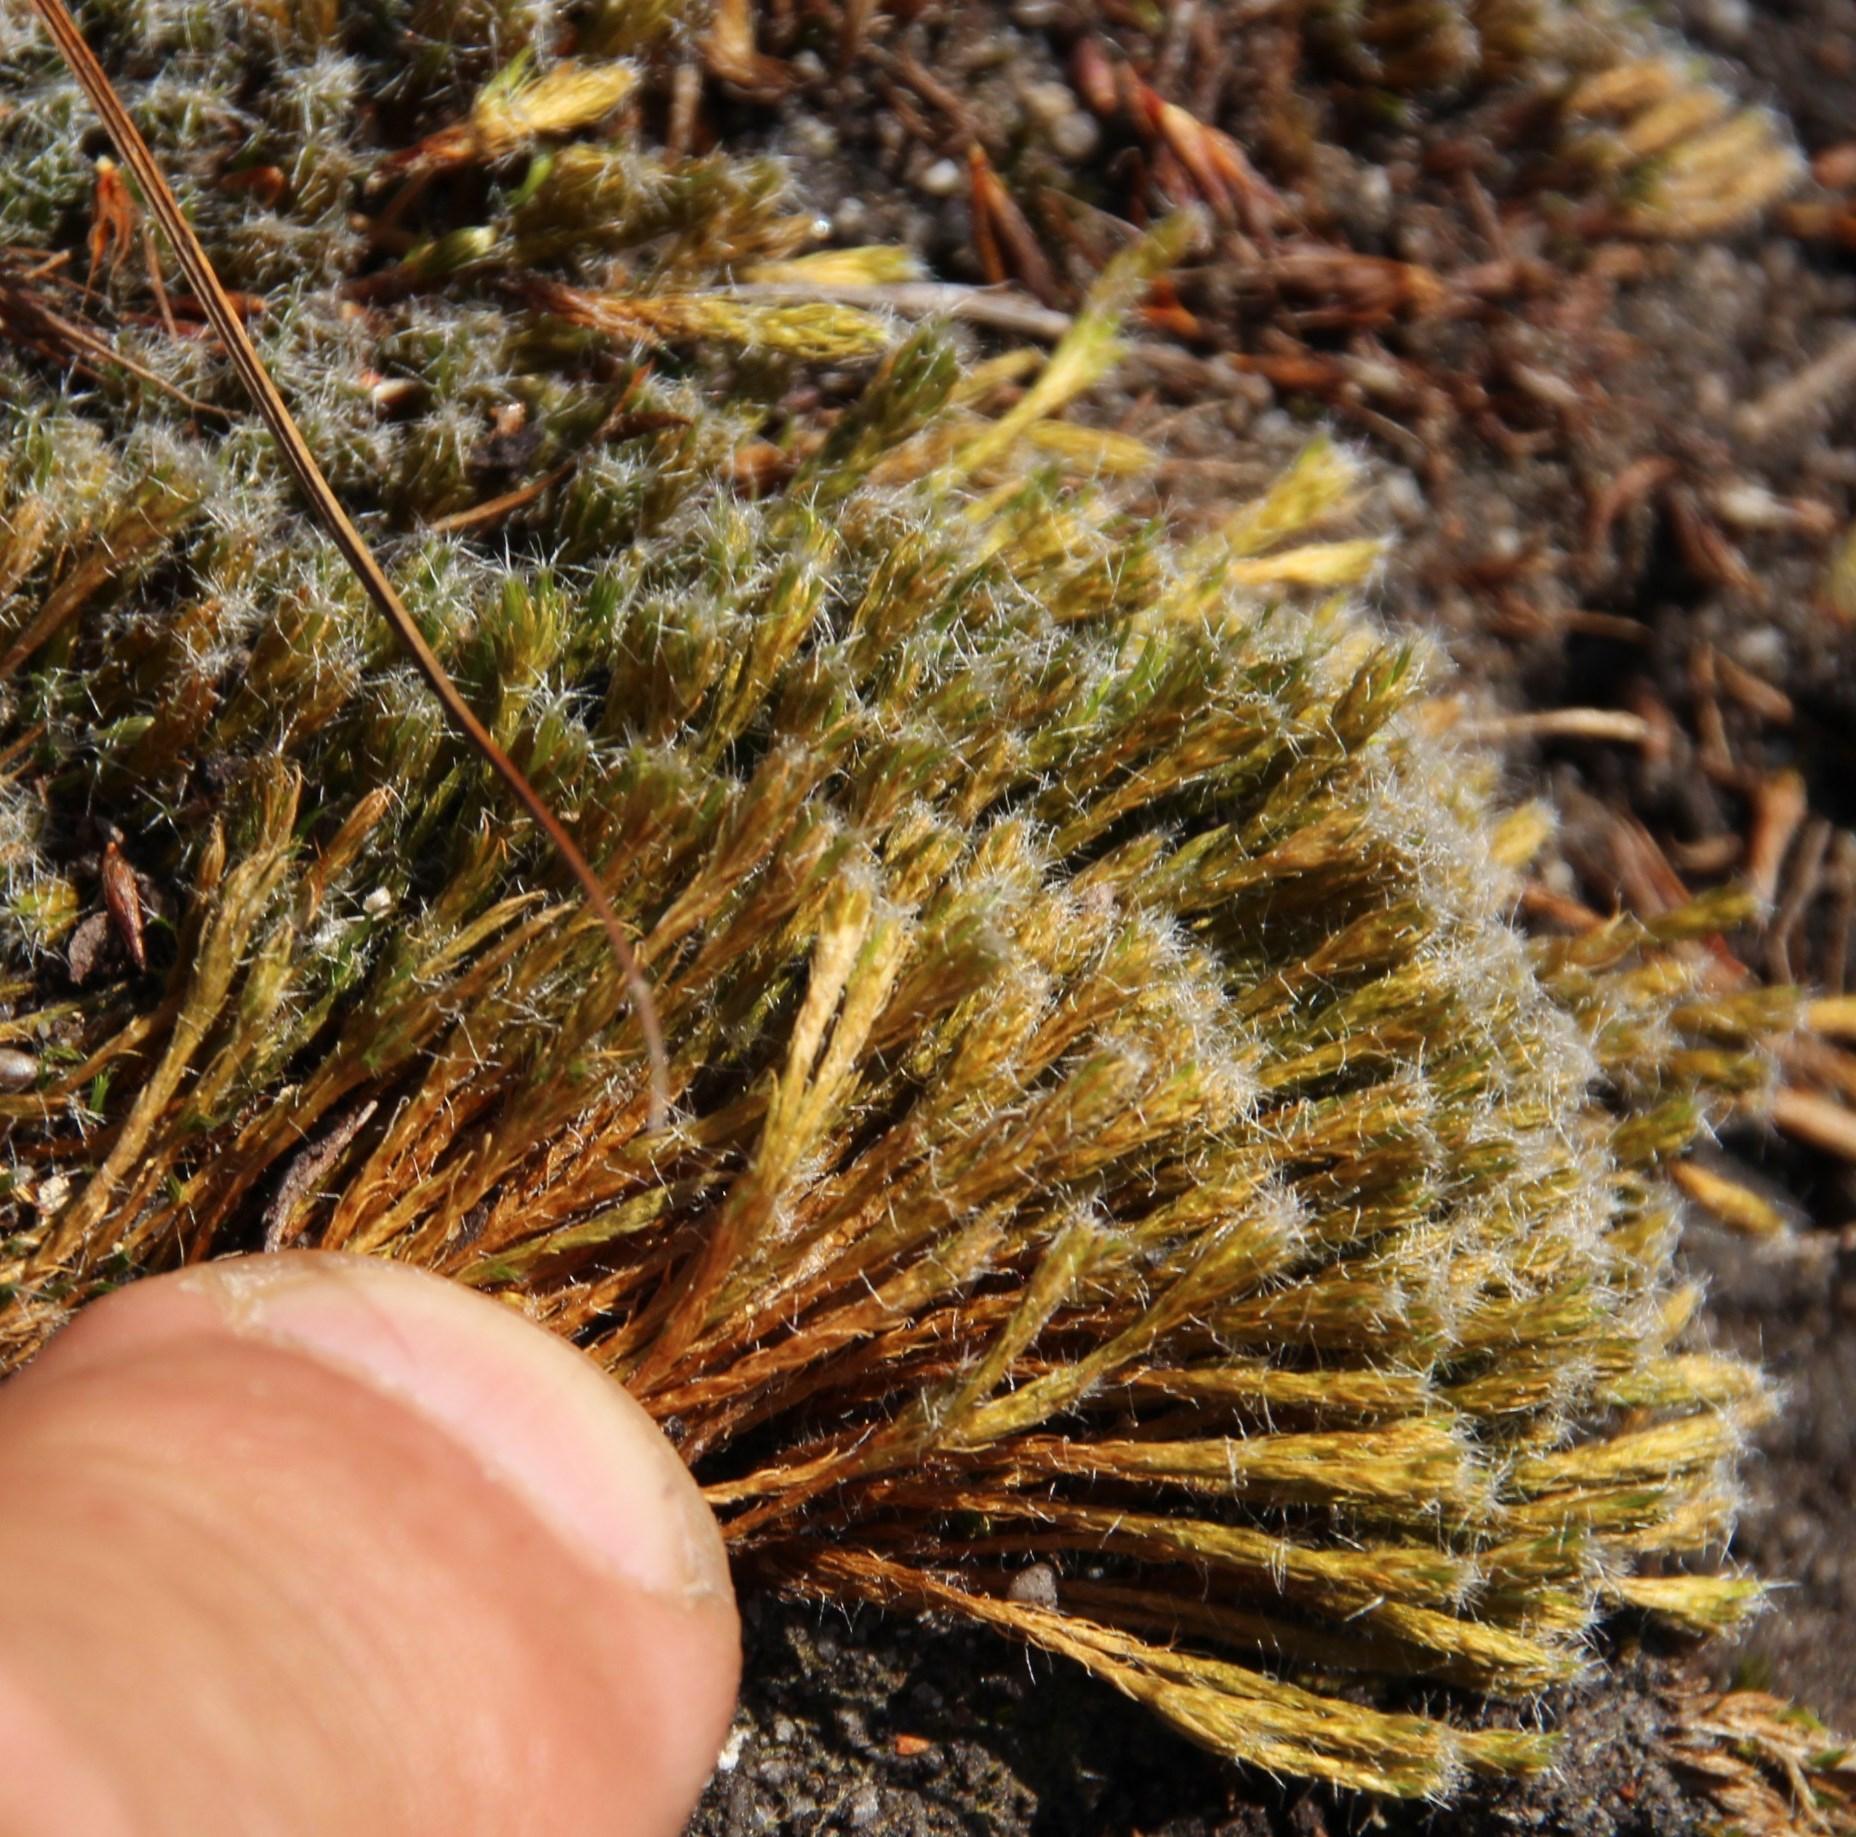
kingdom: Plantae
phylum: Bryophyta
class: Bryopsida
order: Dicranales
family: Leucobryaceae
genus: Campylopus
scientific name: Campylopus introflexus
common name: Heath star moss
